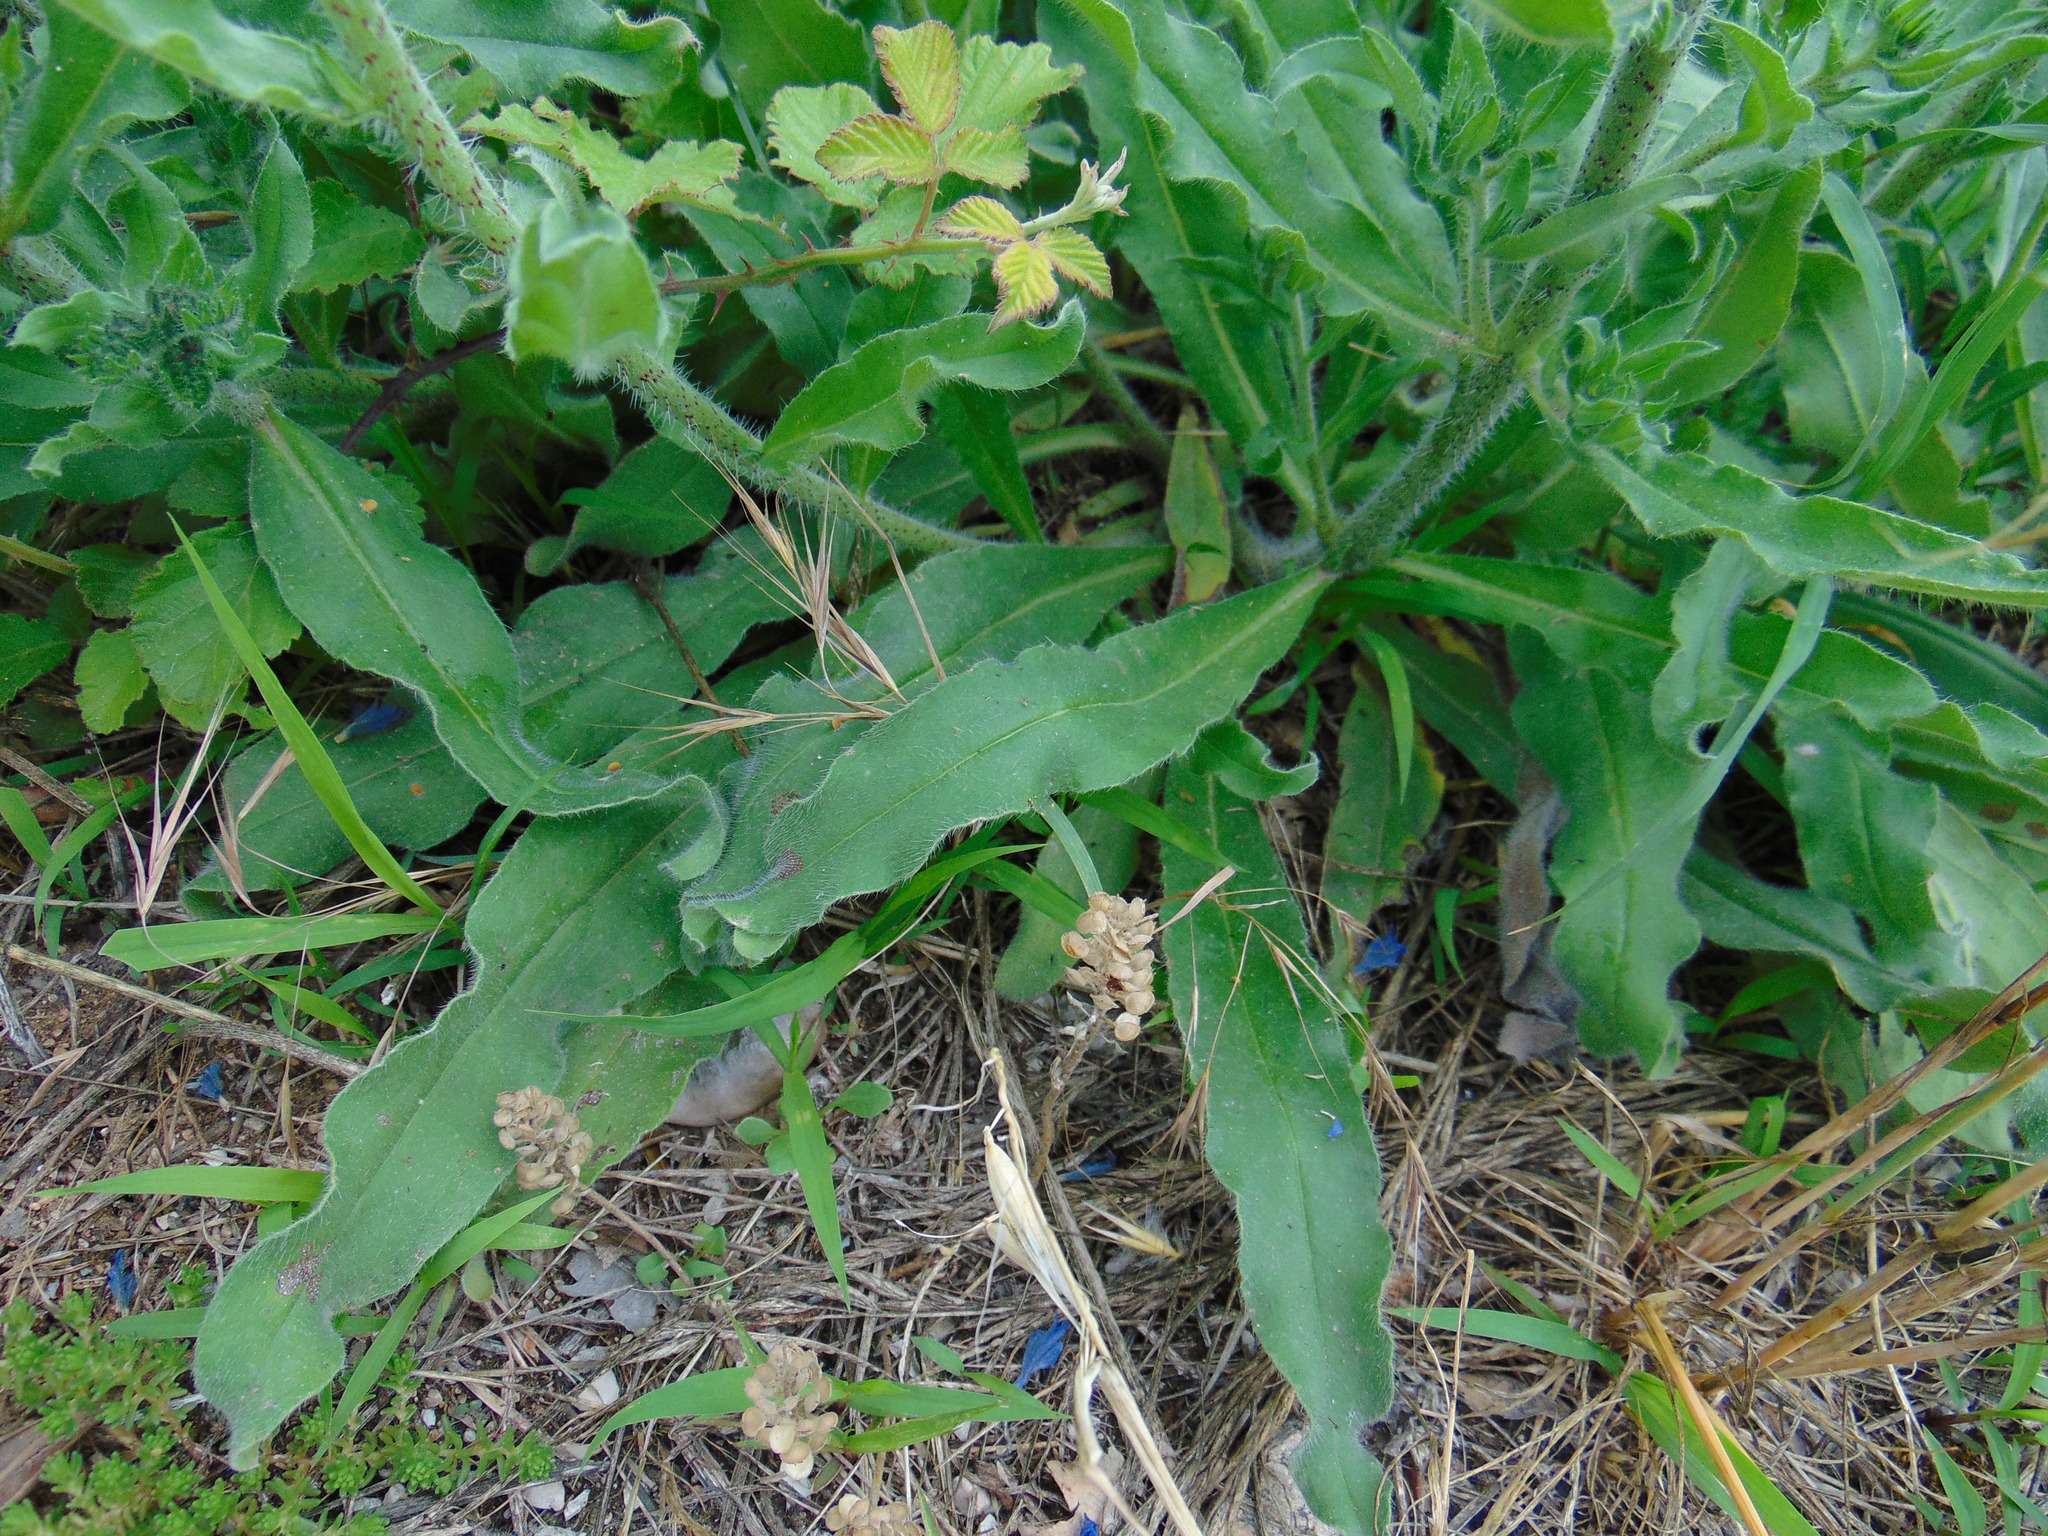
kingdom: Plantae
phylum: Tracheophyta
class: Magnoliopsida
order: Boraginales
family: Boraginaceae
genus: Echium
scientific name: Echium vulgare
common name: Common viper's bugloss
